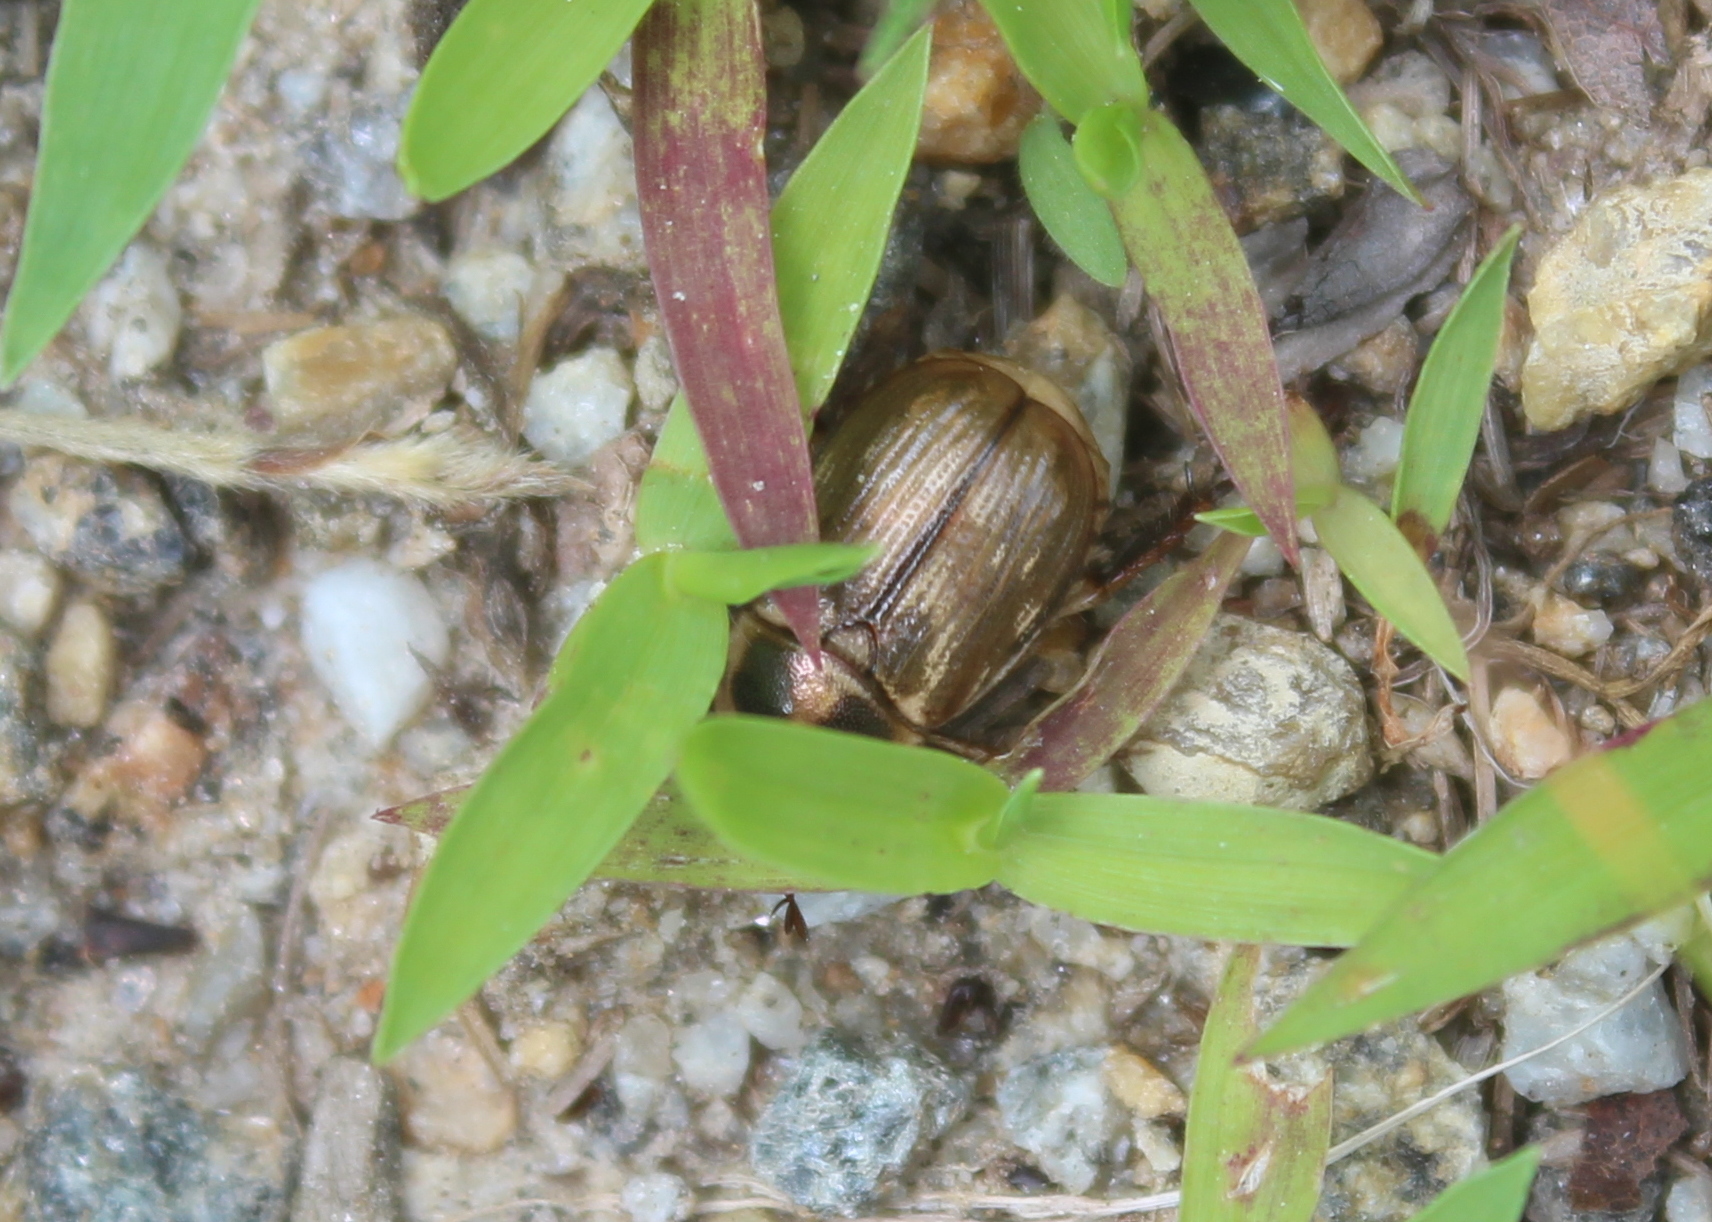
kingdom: Animalia
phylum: Arthropoda
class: Insecta
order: Coleoptera
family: Scarabaeidae
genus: Exomala
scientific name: Exomala orientalis
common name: Oriental beetle
